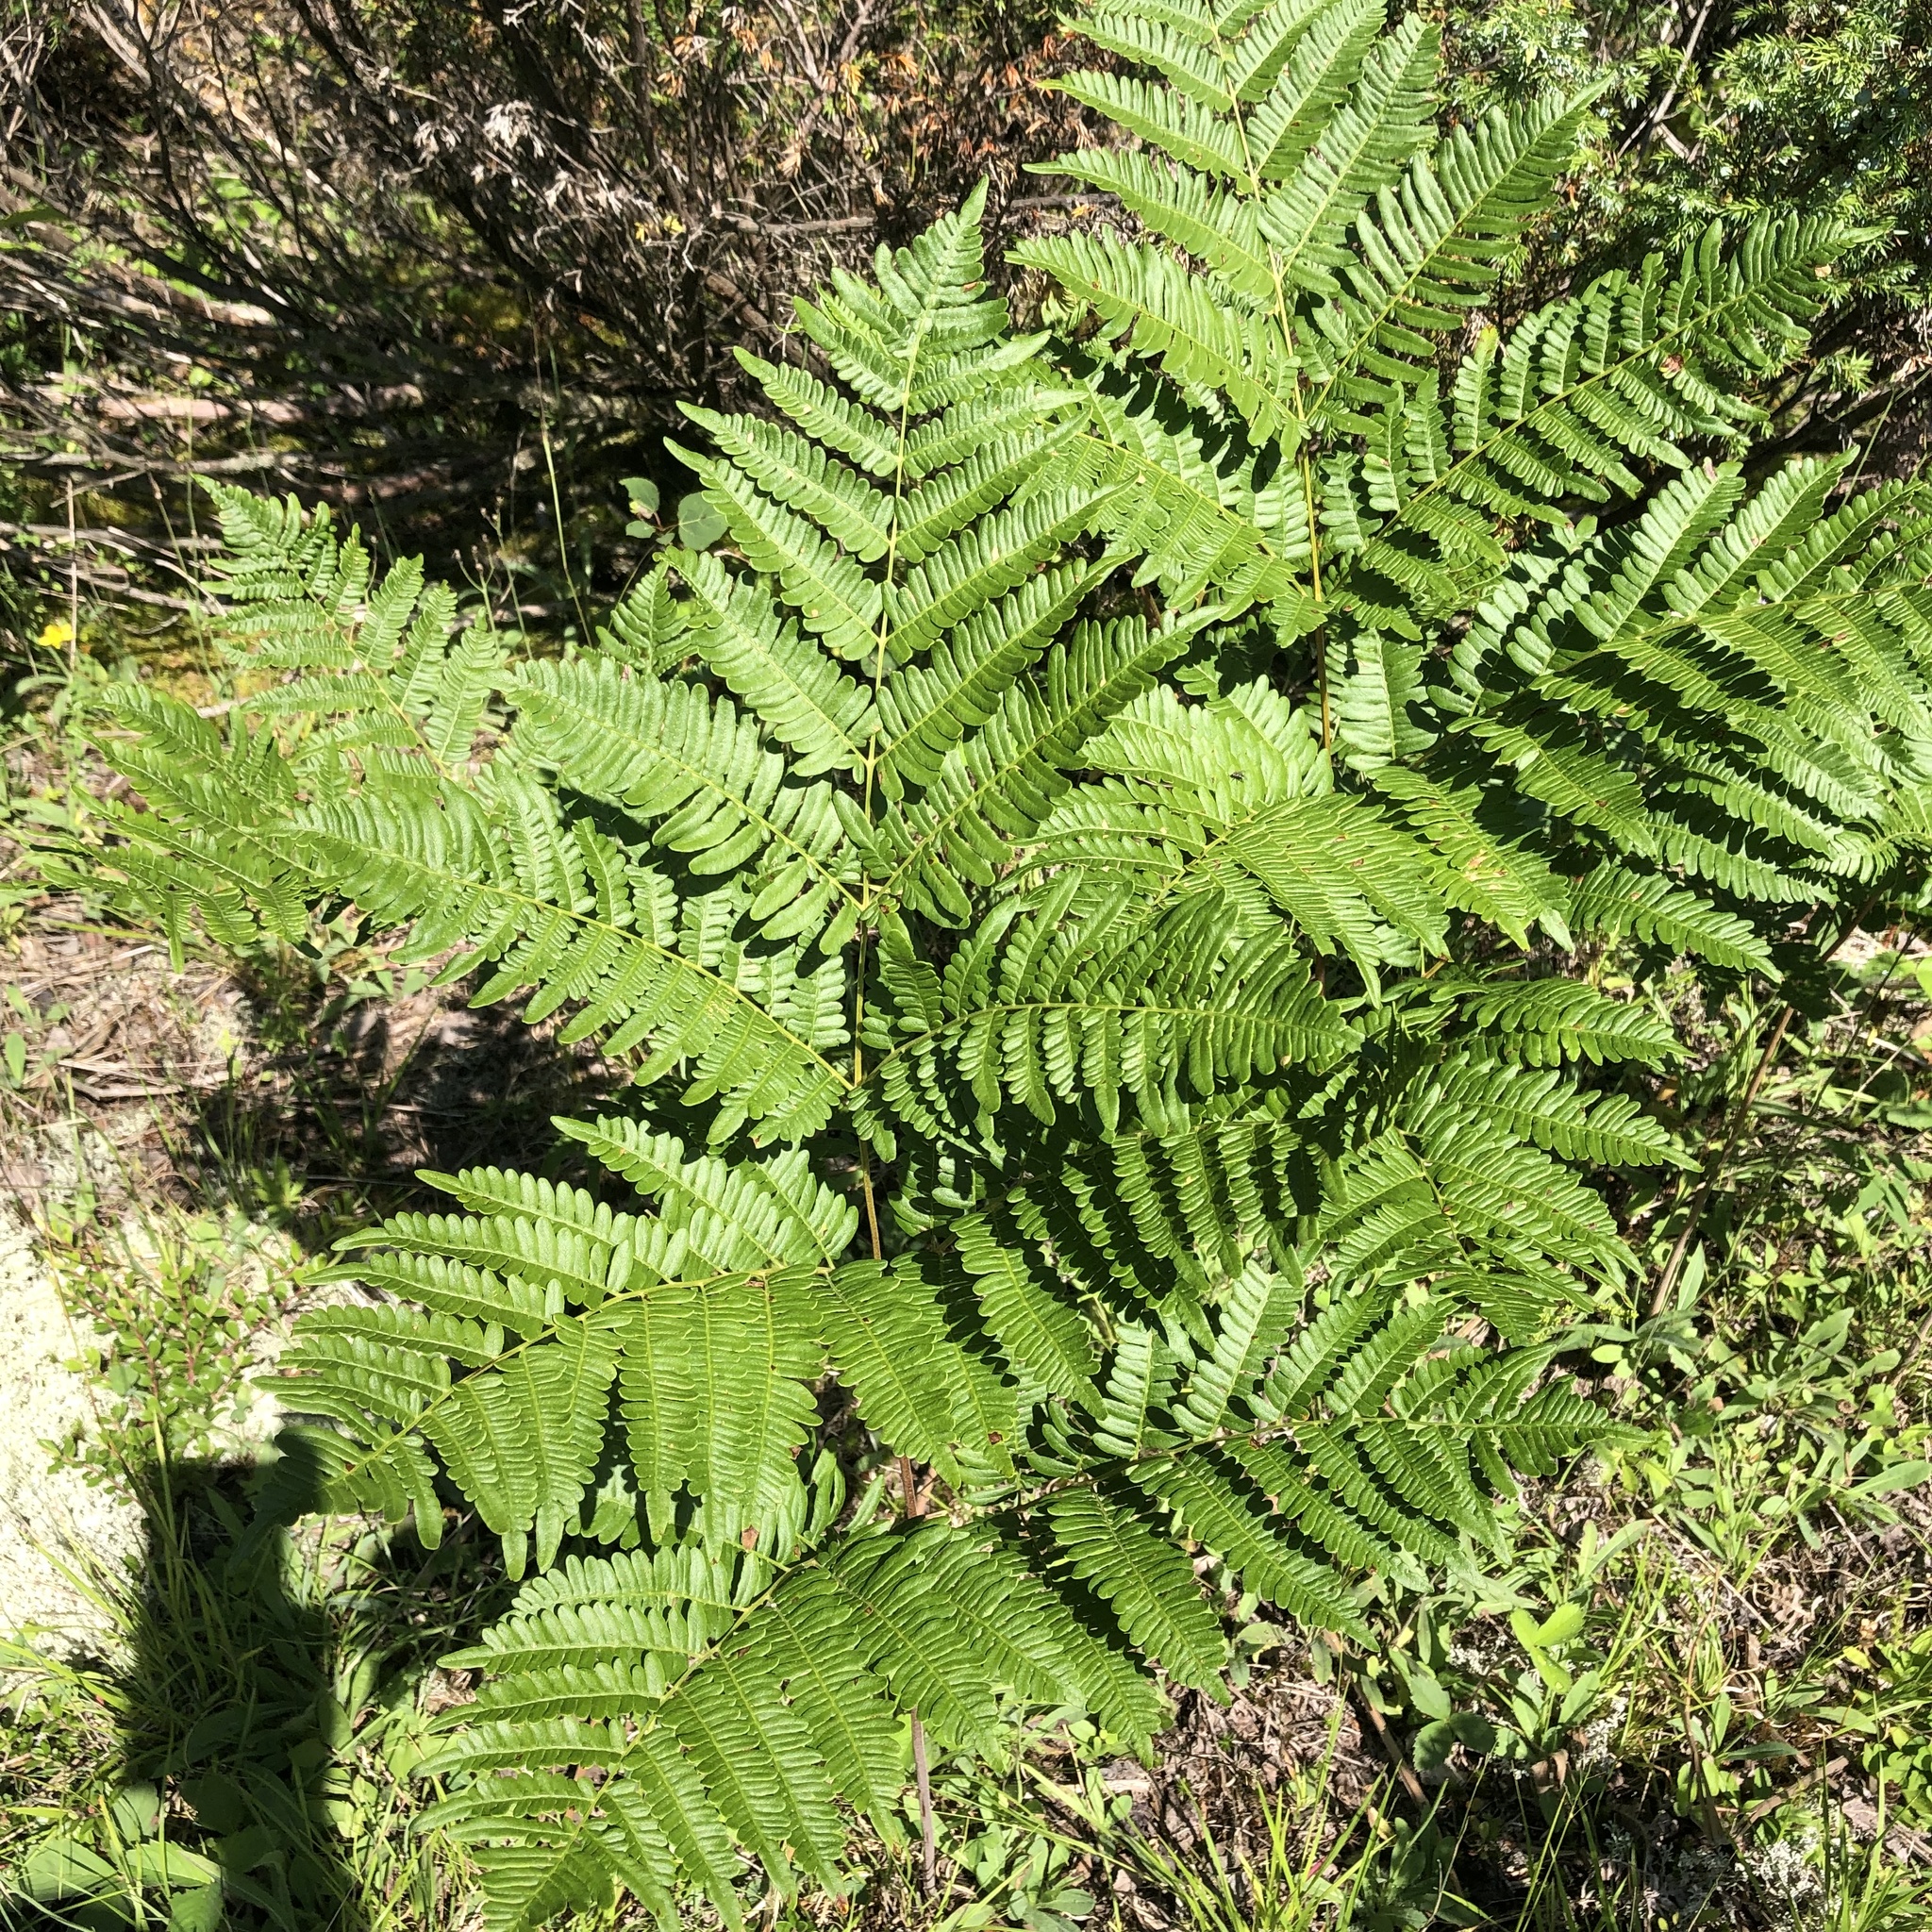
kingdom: Plantae
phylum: Tracheophyta
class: Polypodiopsida
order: Polypodiales
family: Dennstaedtiaceae
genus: Pteridium
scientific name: Pteridium aquilinum
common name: Bracken
